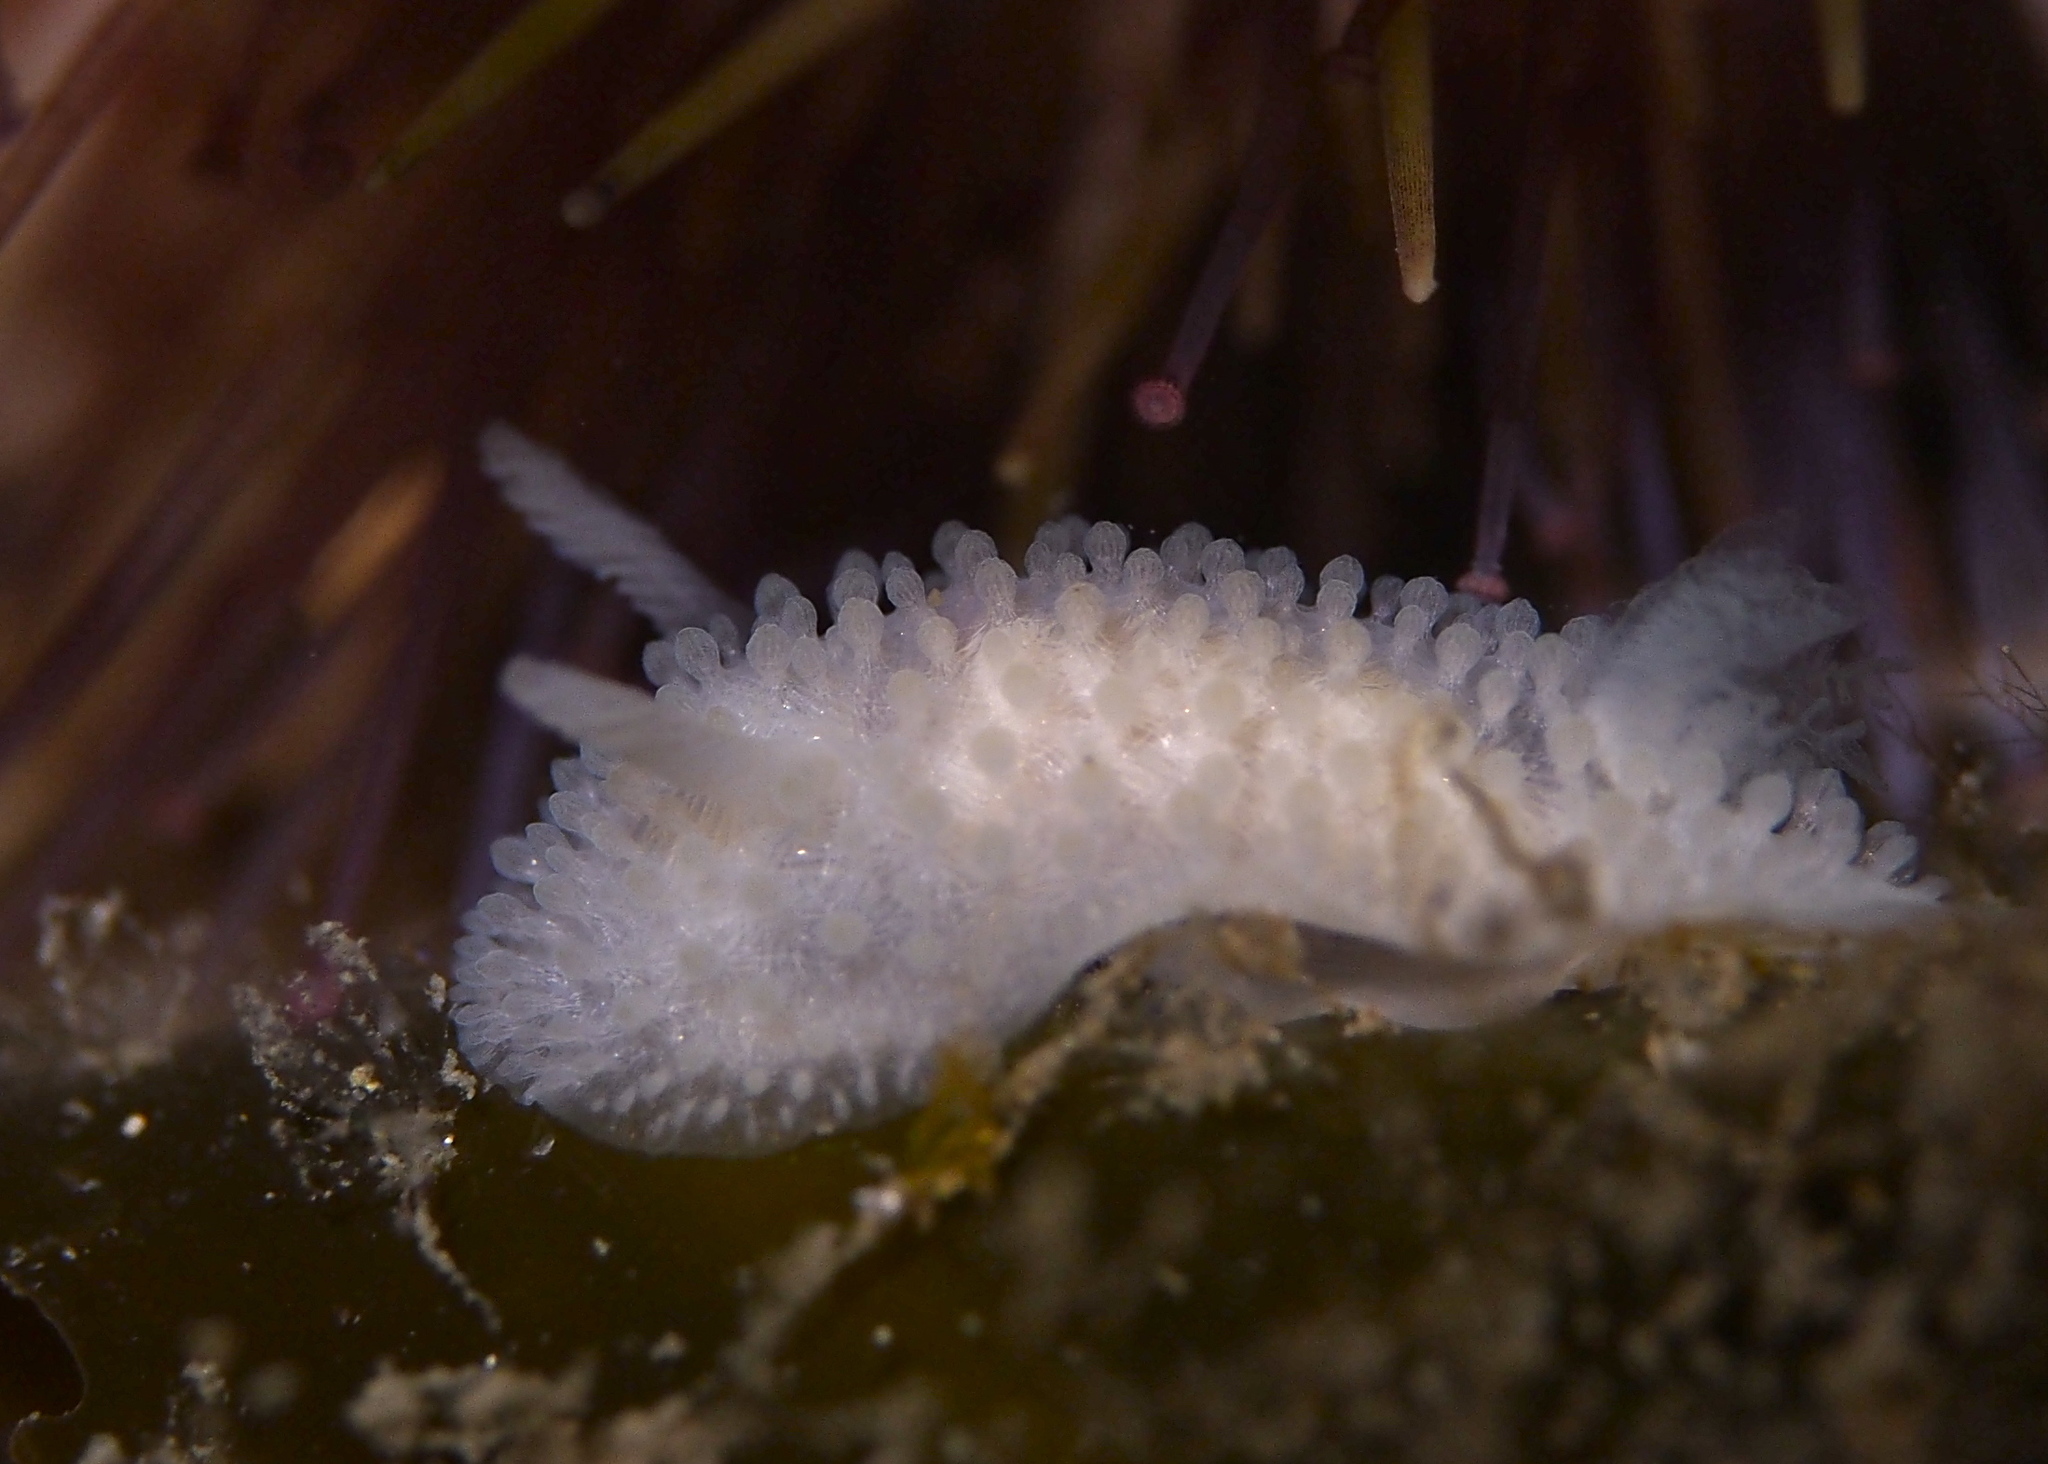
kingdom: Animalia
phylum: Mollusca
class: Gastropoda
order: Nudibranchia
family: Onchidorididae
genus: Onchidoris
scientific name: Onchidoris muricata
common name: Rough doris
